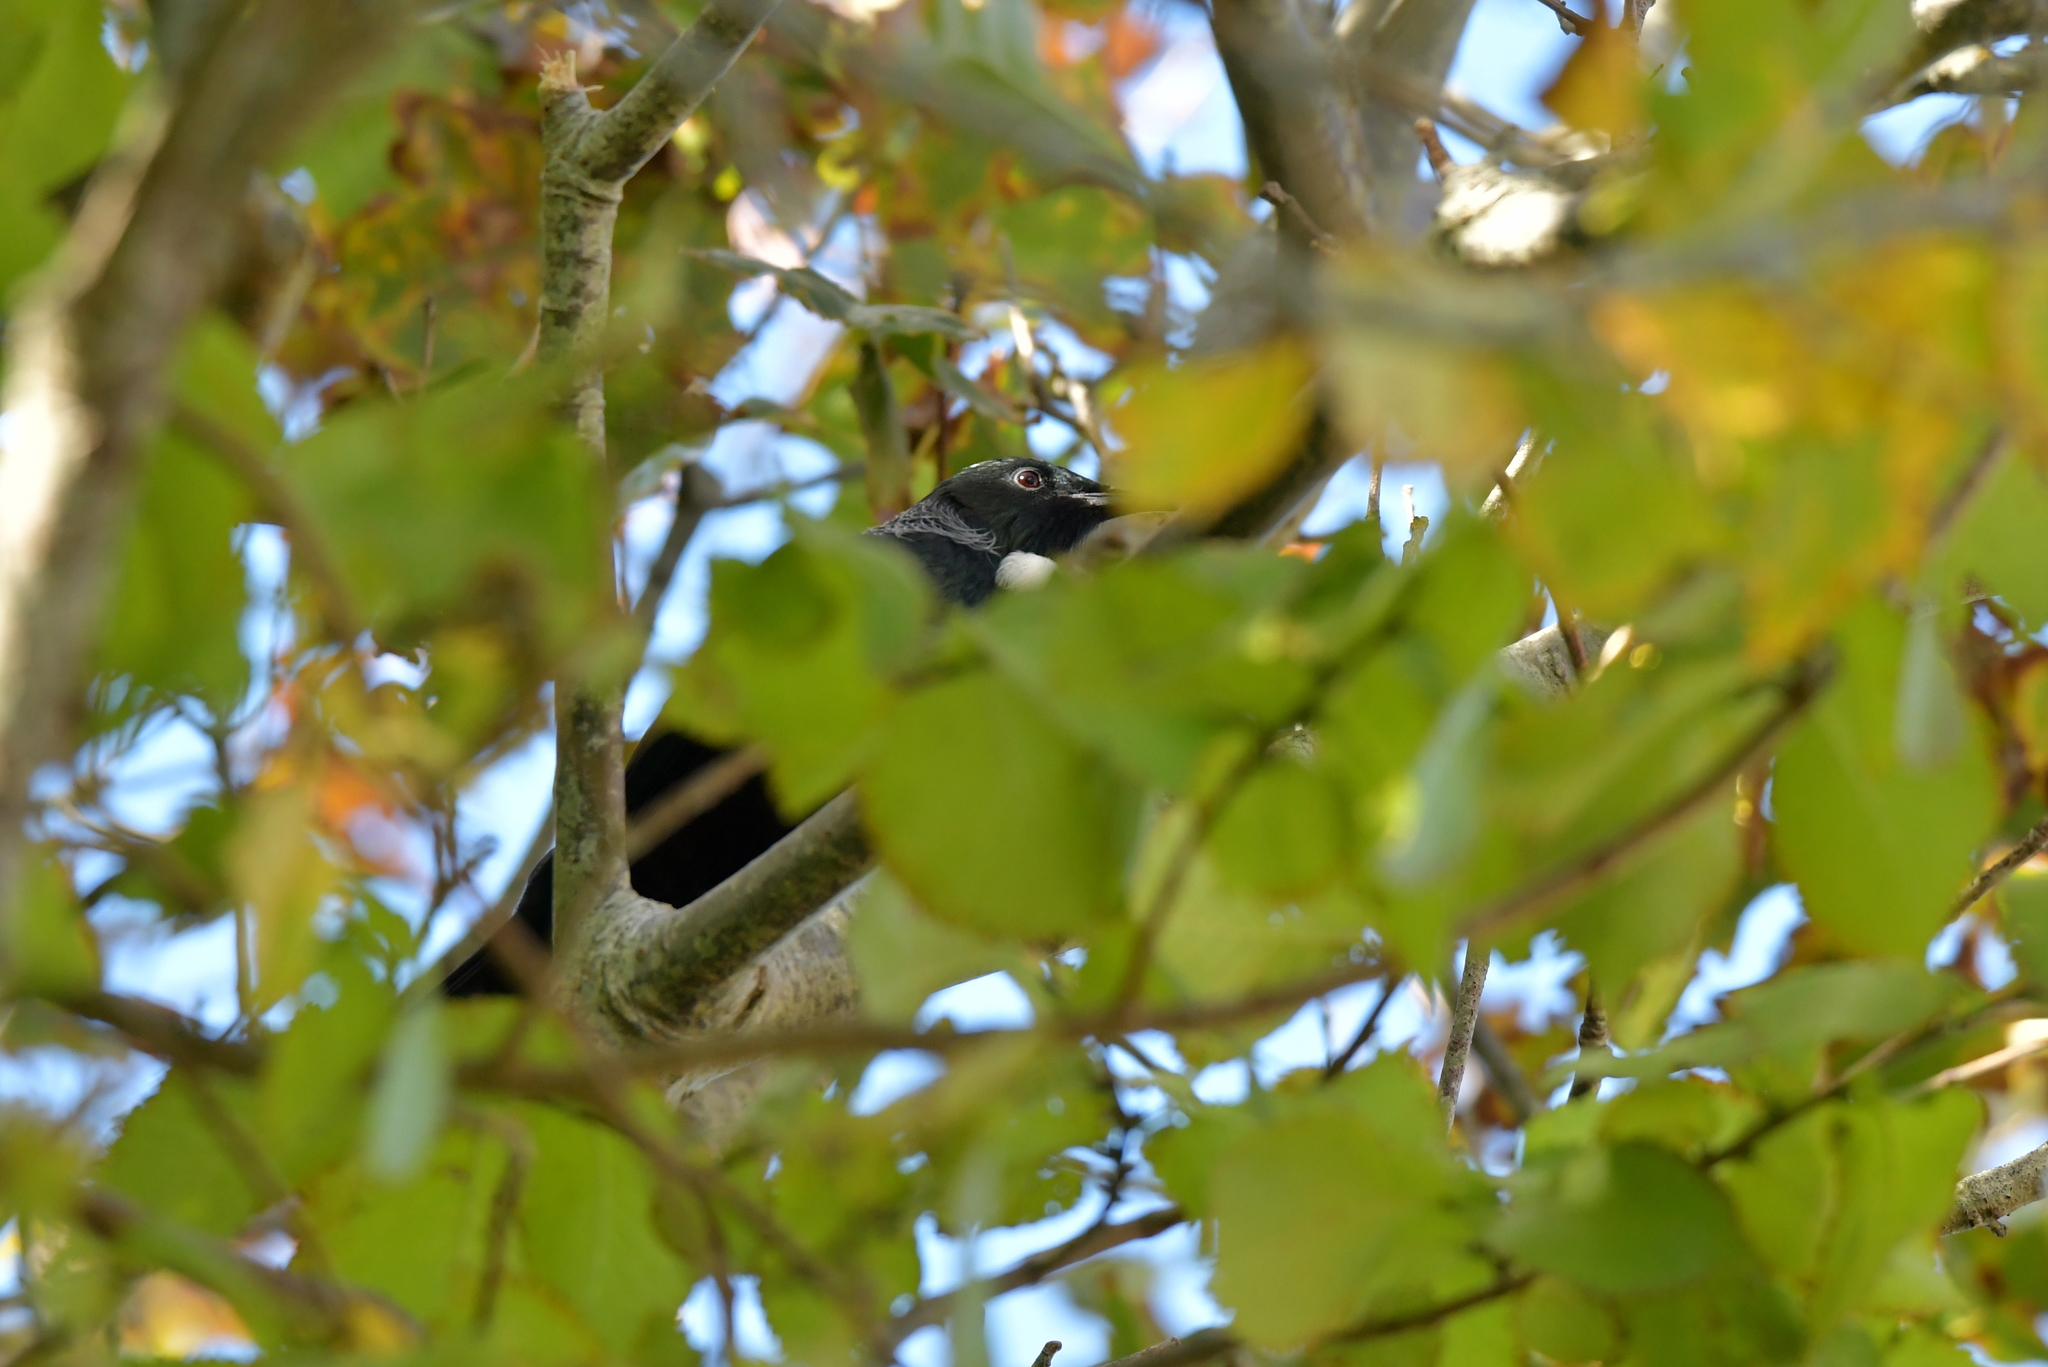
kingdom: Animalia
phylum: Chordata
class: Aves
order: Passeriformes
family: Meliphagidae
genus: Prosthemadera
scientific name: Prosthemadera novaeseelandiae
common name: Tui
